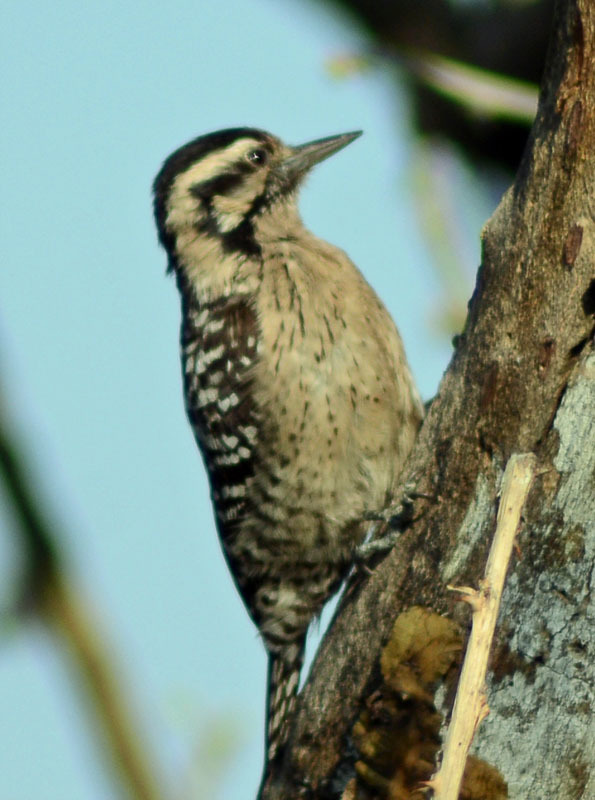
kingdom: Animalia
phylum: Chordata
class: Aves
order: Piciformes
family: Picidae
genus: Dryobates
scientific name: Dryobates scalaris
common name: Ladder-backed woodpecker
